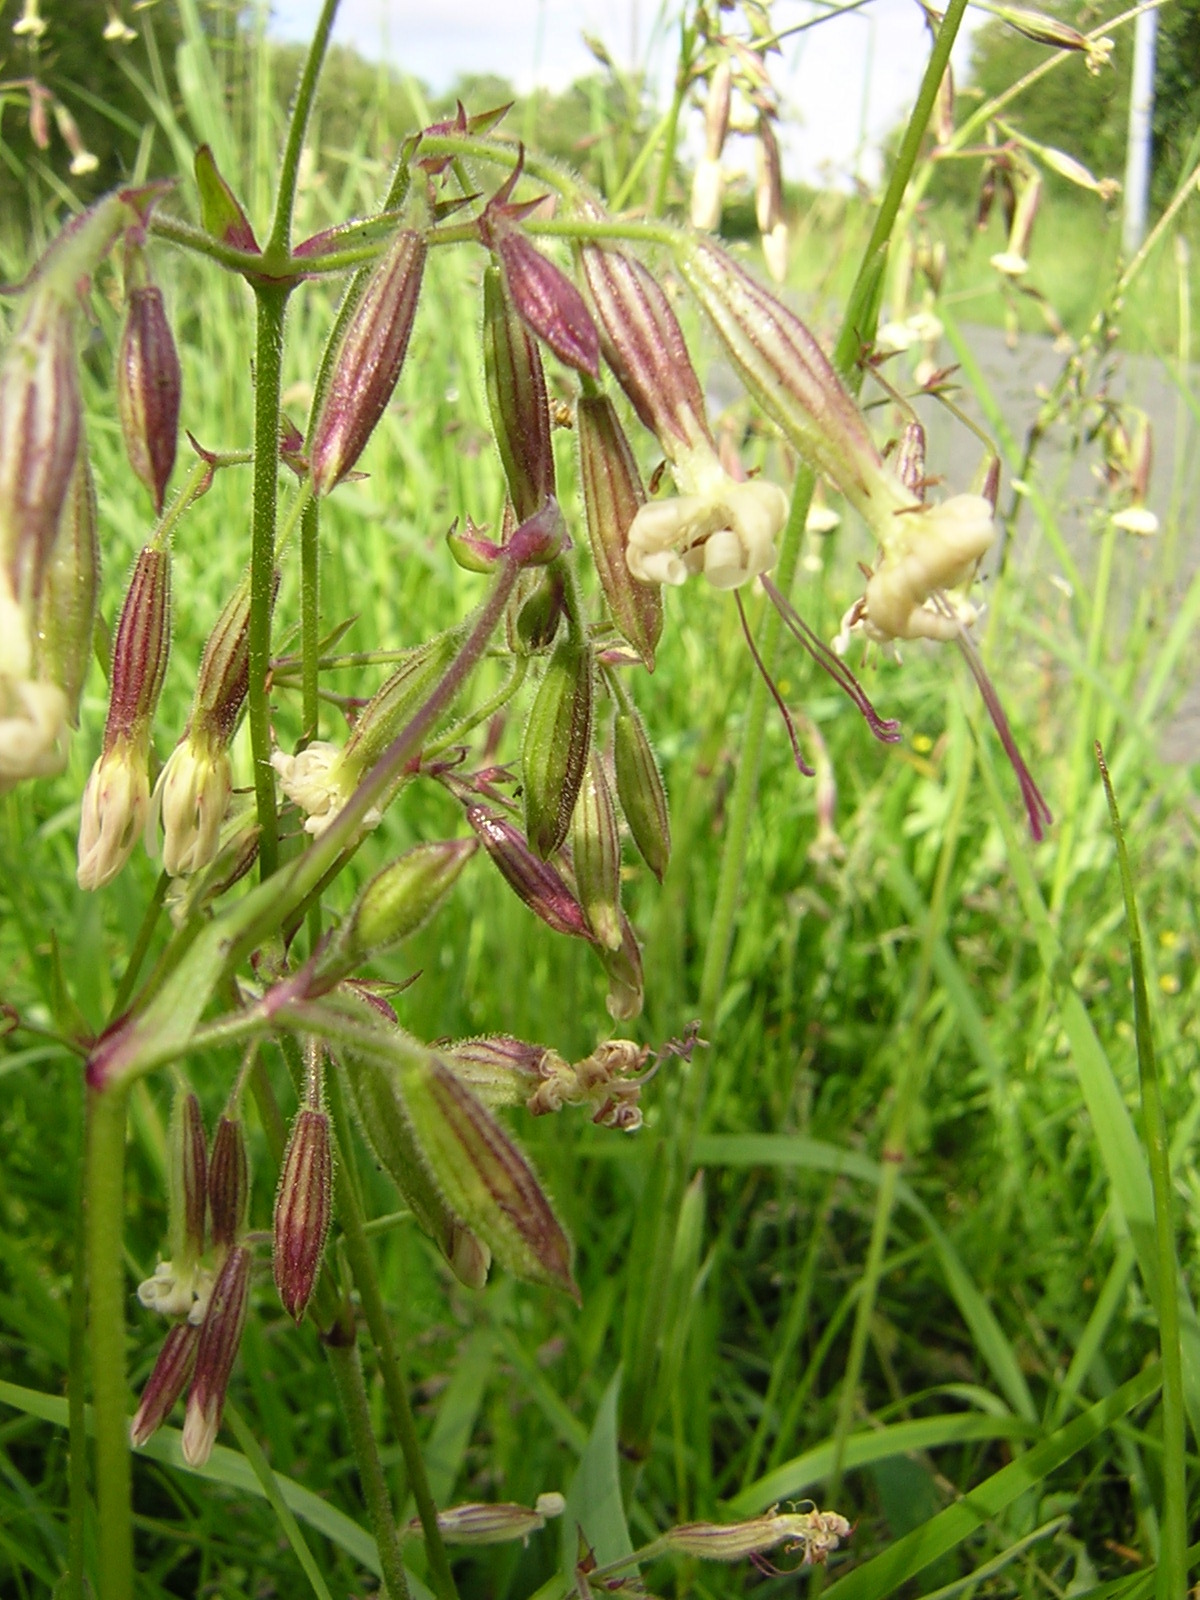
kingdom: Plantae
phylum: Tracheophyta
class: Magnoliopsida
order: Caryophyllales
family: Caryophyllaceae
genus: Silene
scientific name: Silene nutans
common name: Nottingham catchfly
